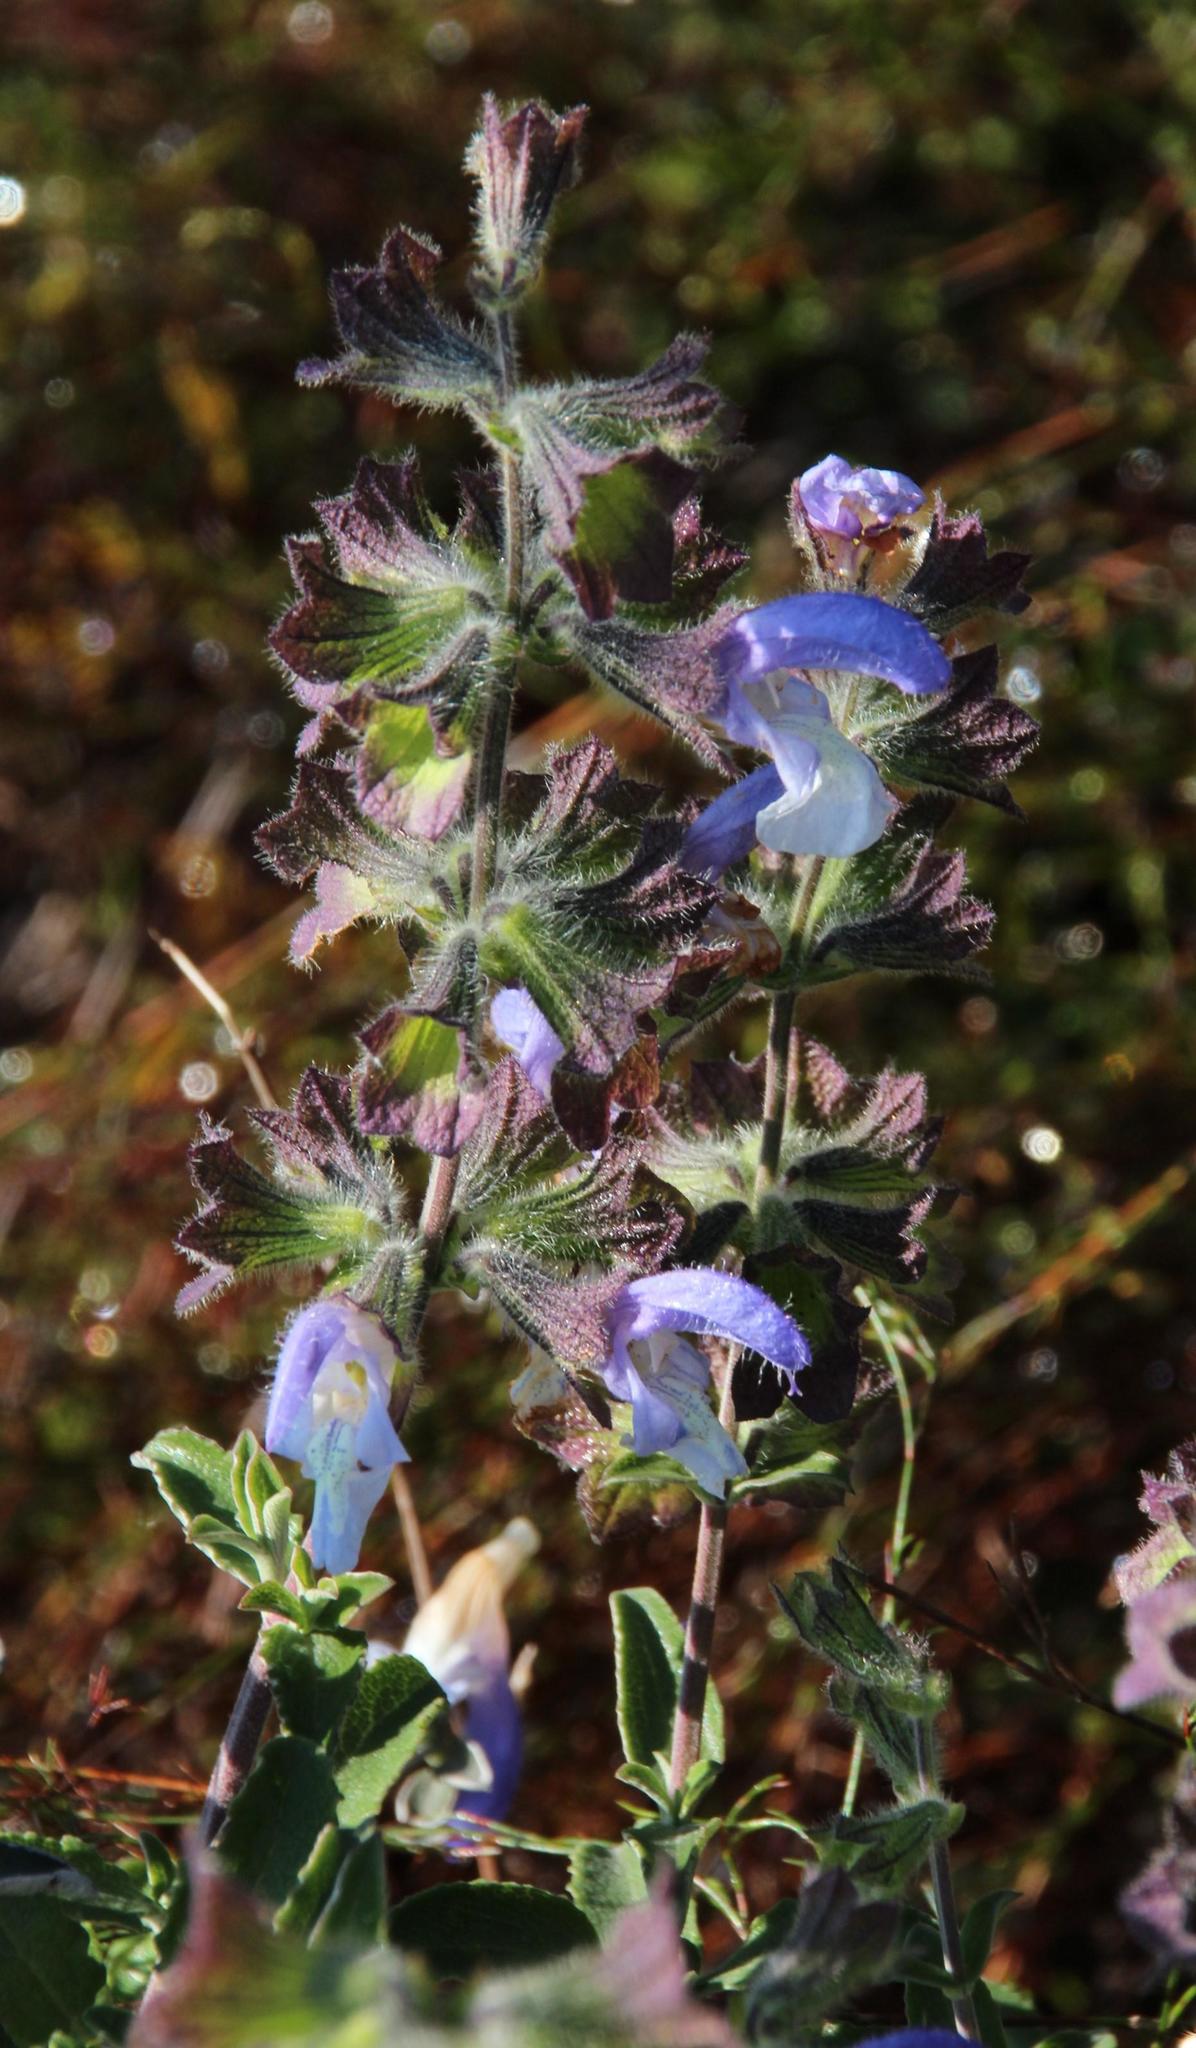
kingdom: Plantae
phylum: Tracheophyta
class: Magnoliopsida
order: Lamiales
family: Lamiaceae
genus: Salvia
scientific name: Salvia africana
